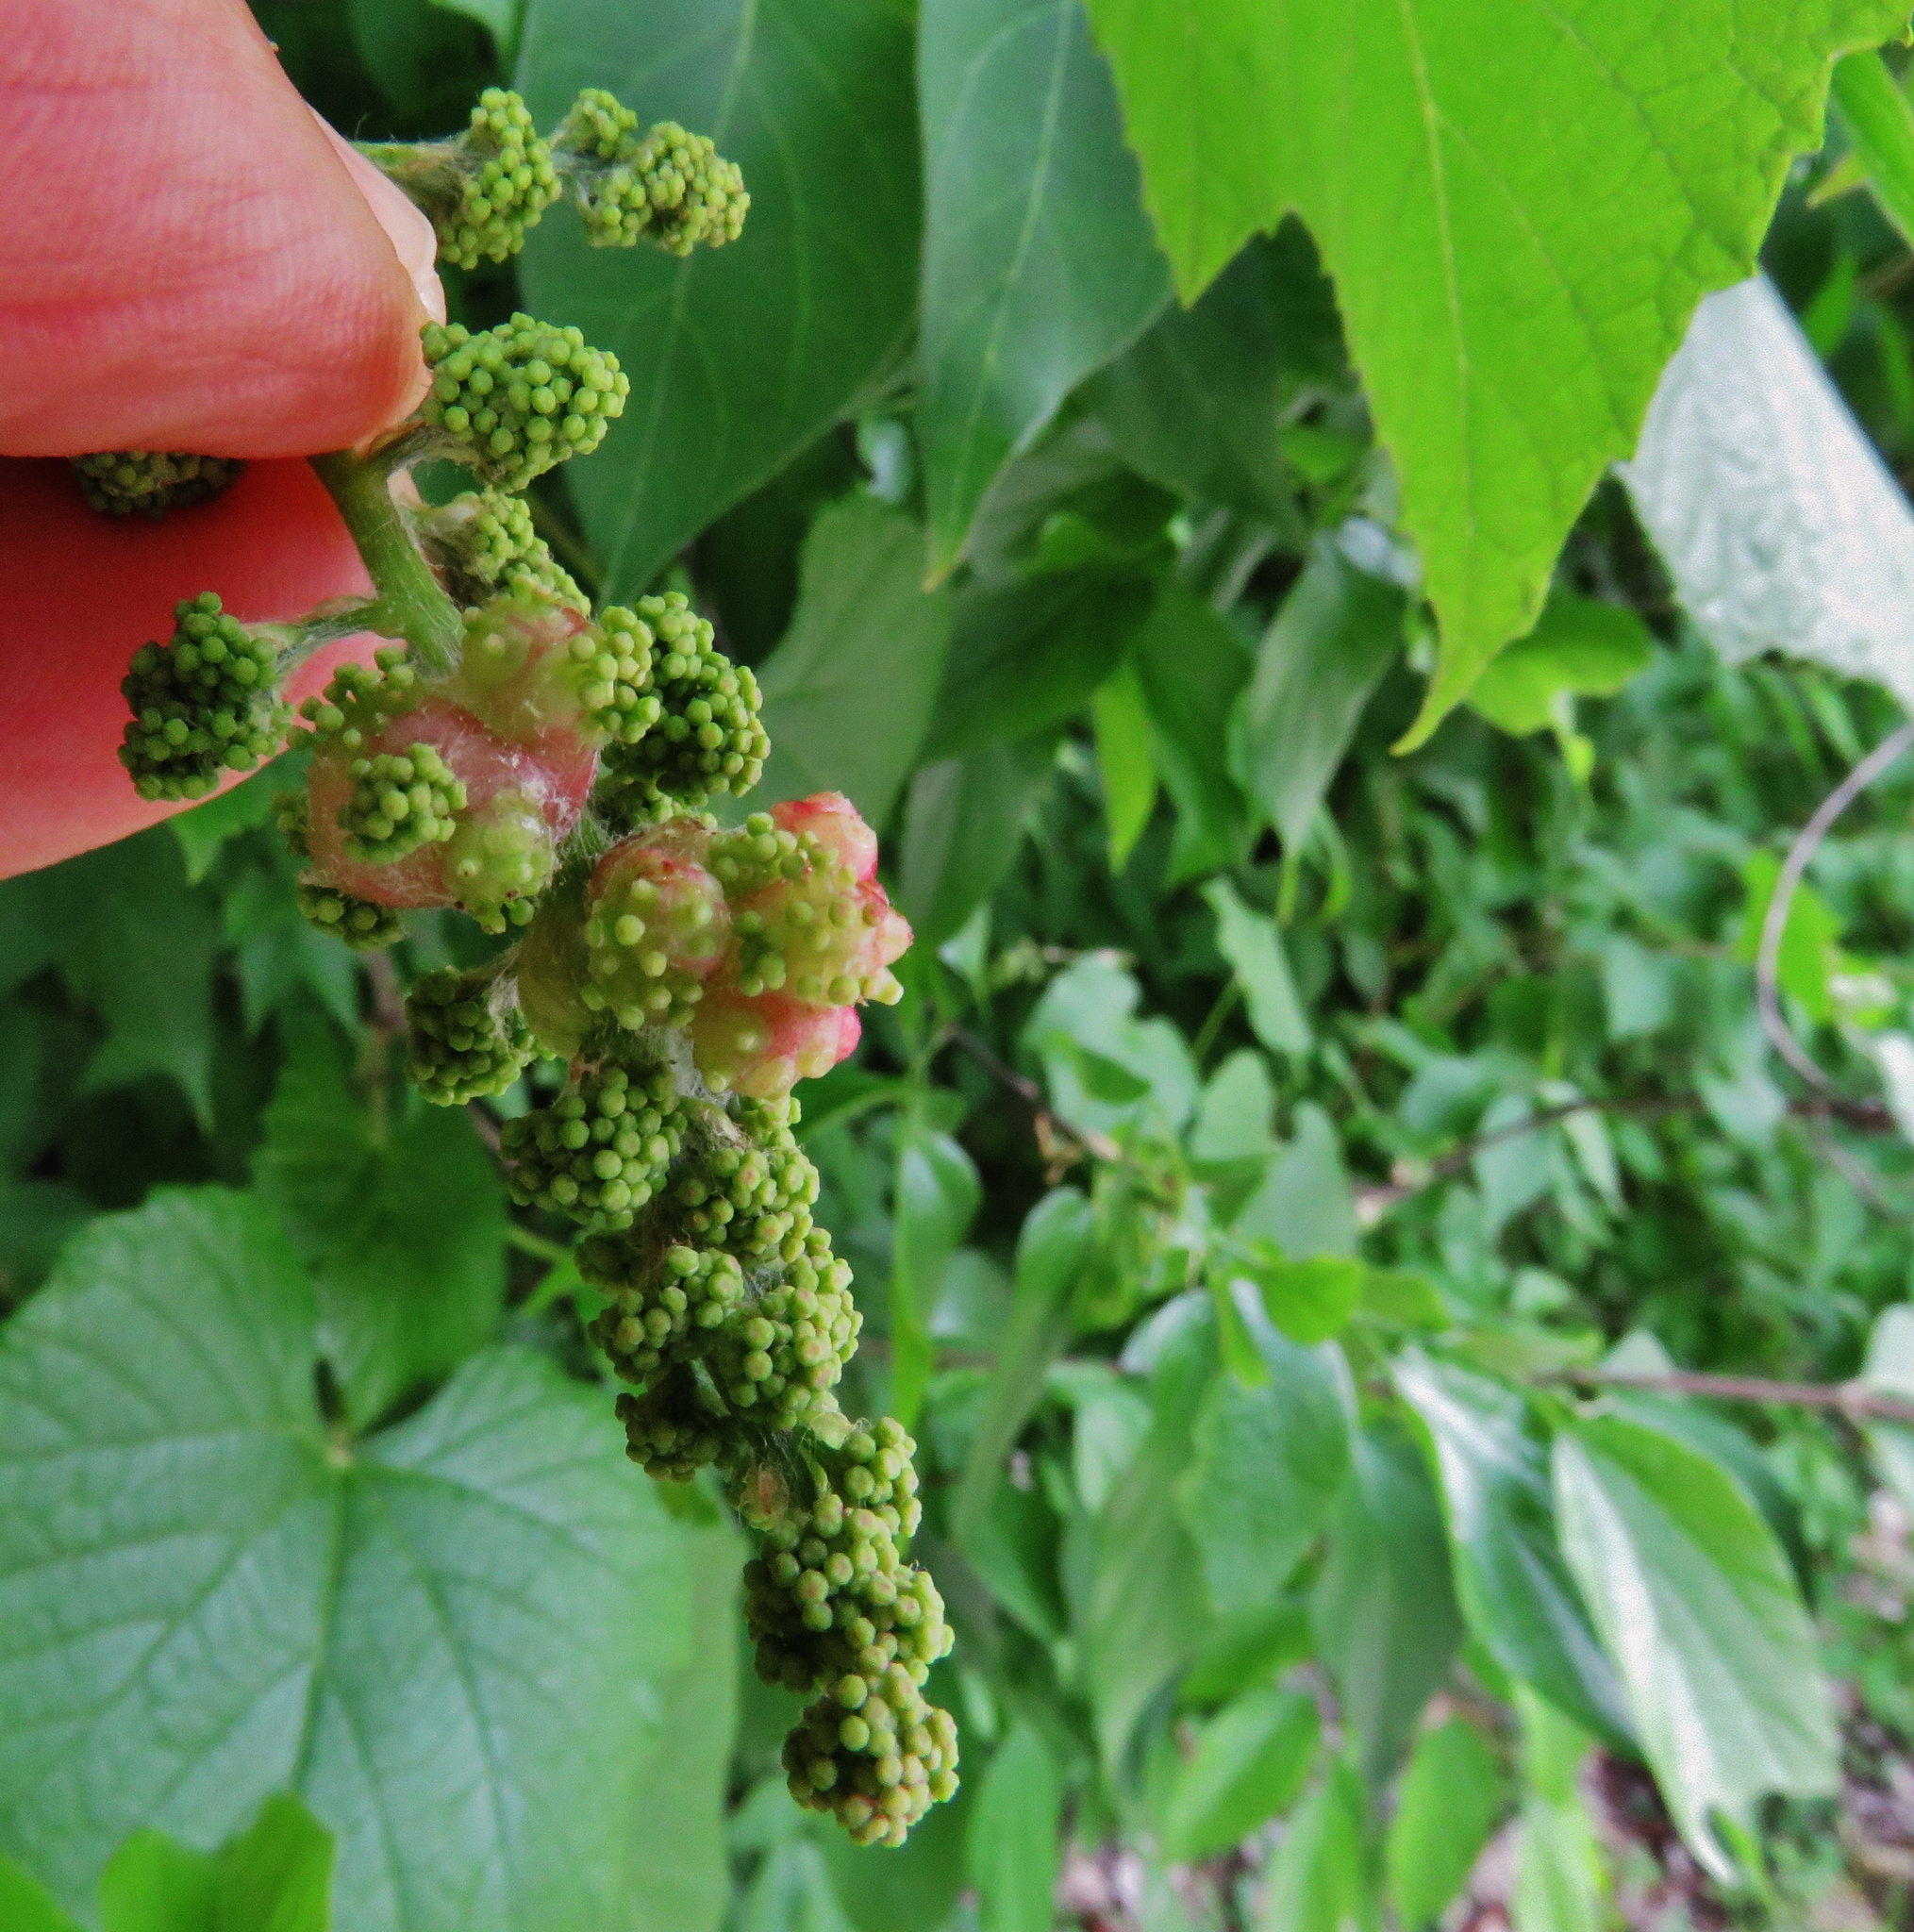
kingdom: Plantae
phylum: Tracheophyta
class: Magnoliopsida
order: Vitales
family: Vitaceae
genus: Vitis
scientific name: Vitis mustangensis
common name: Mustang grape
